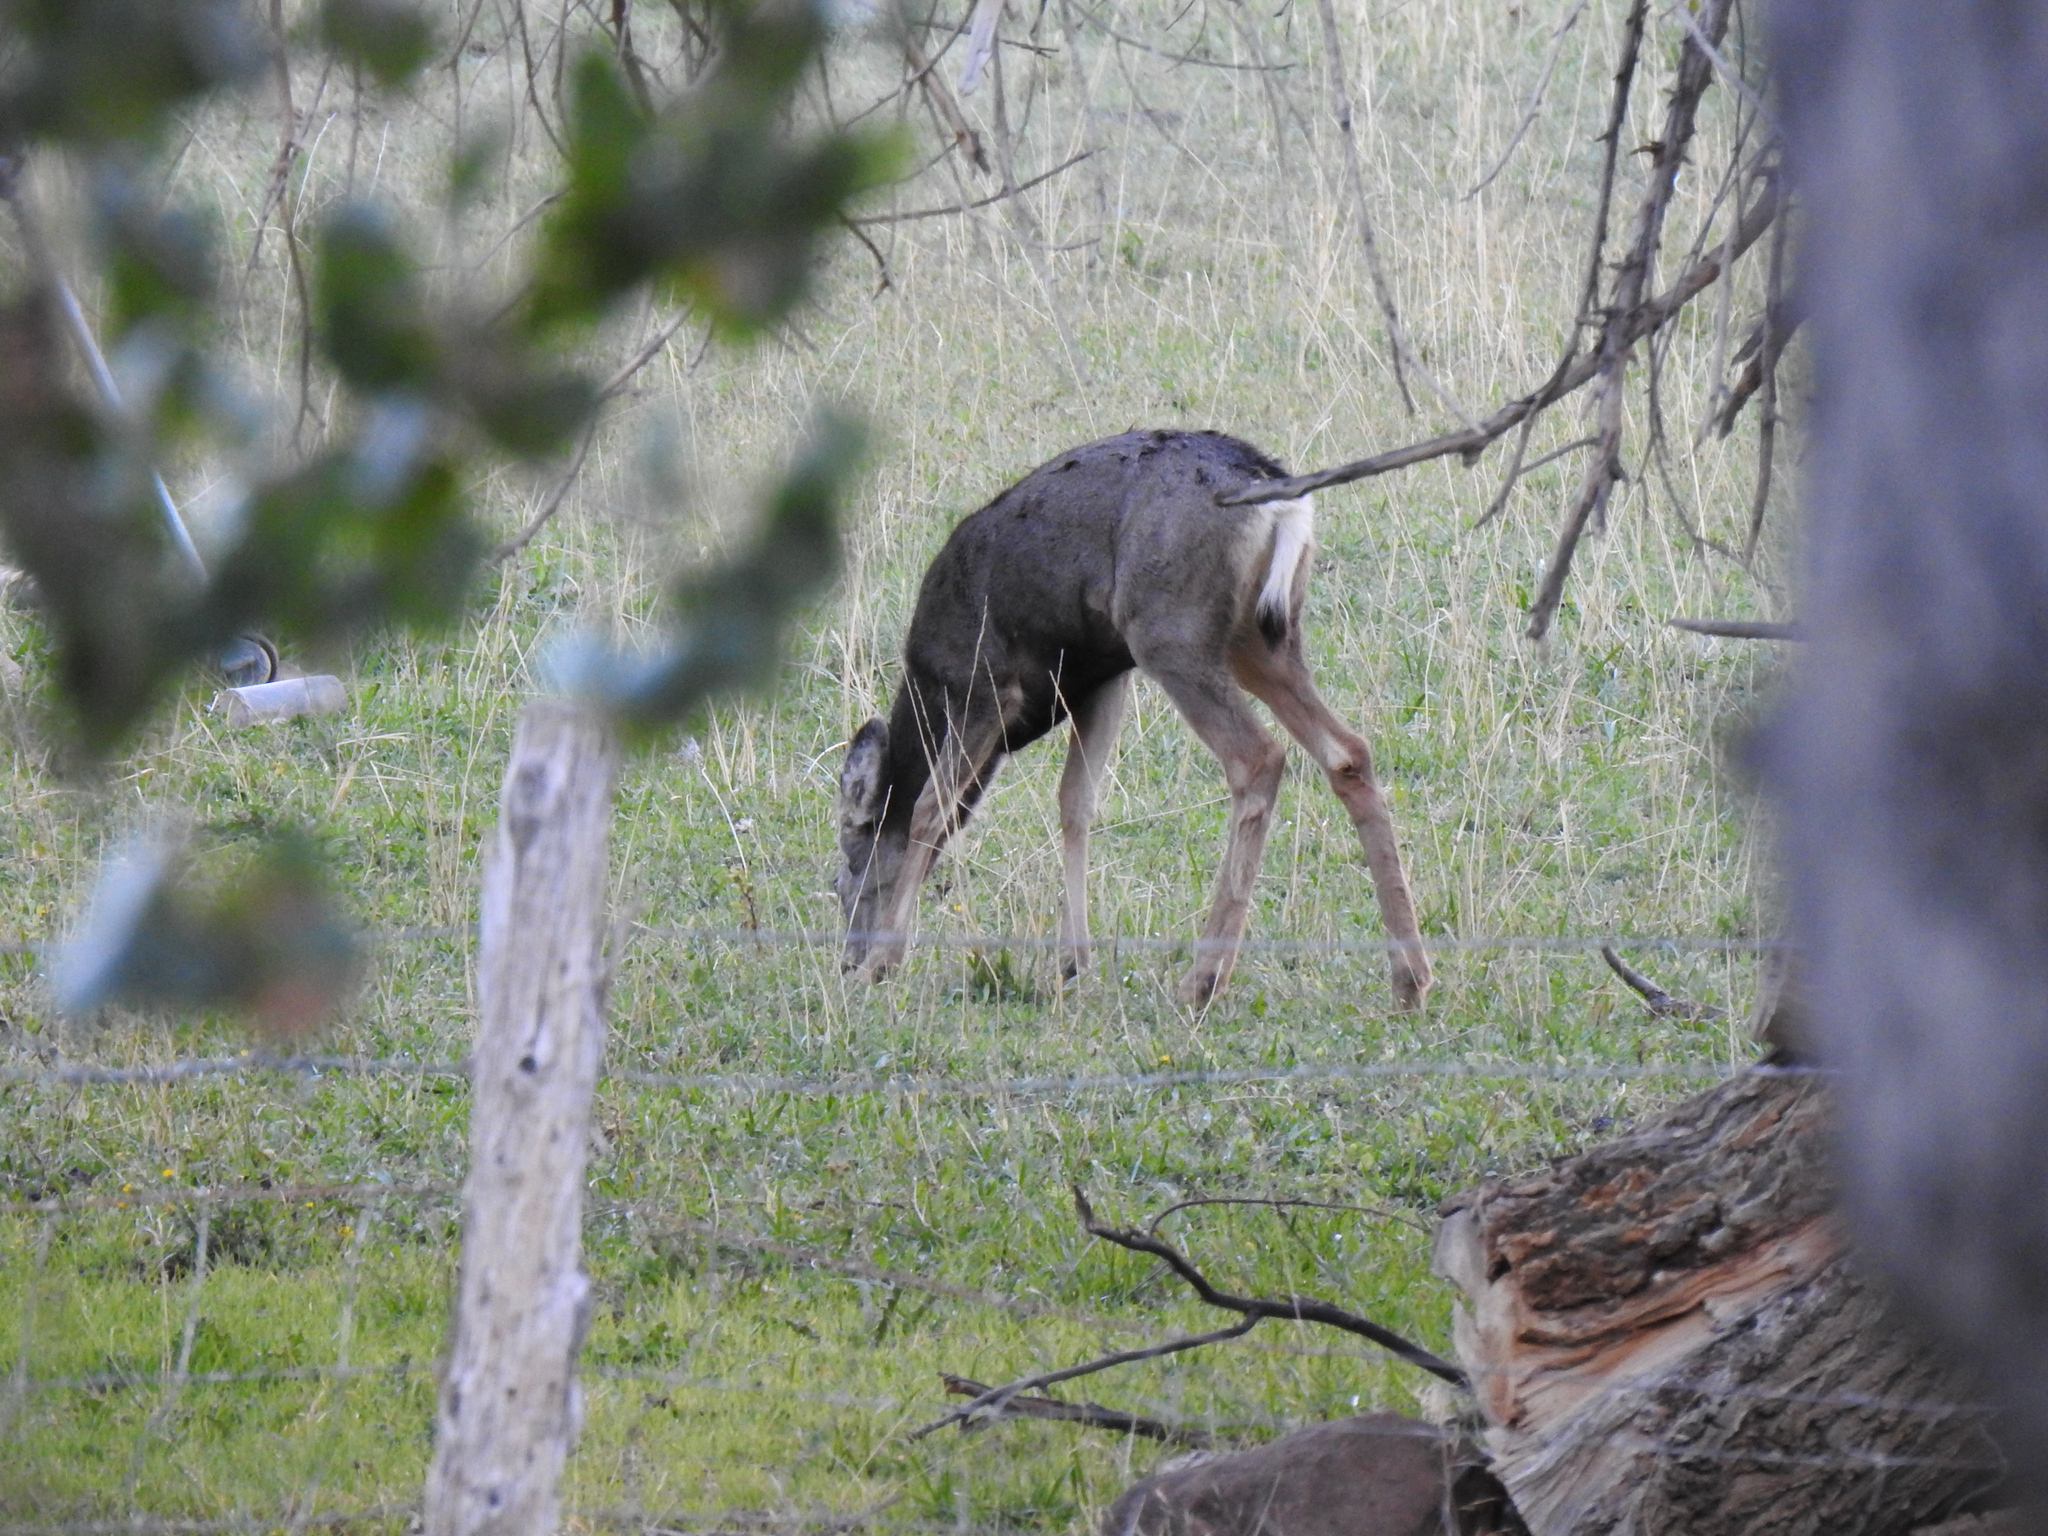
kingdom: Animalia
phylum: Chordata
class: Mammalia
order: Artiodactyla
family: Cervidae
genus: Odocoileus
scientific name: Odocoileus hemionus
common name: Mule deer
